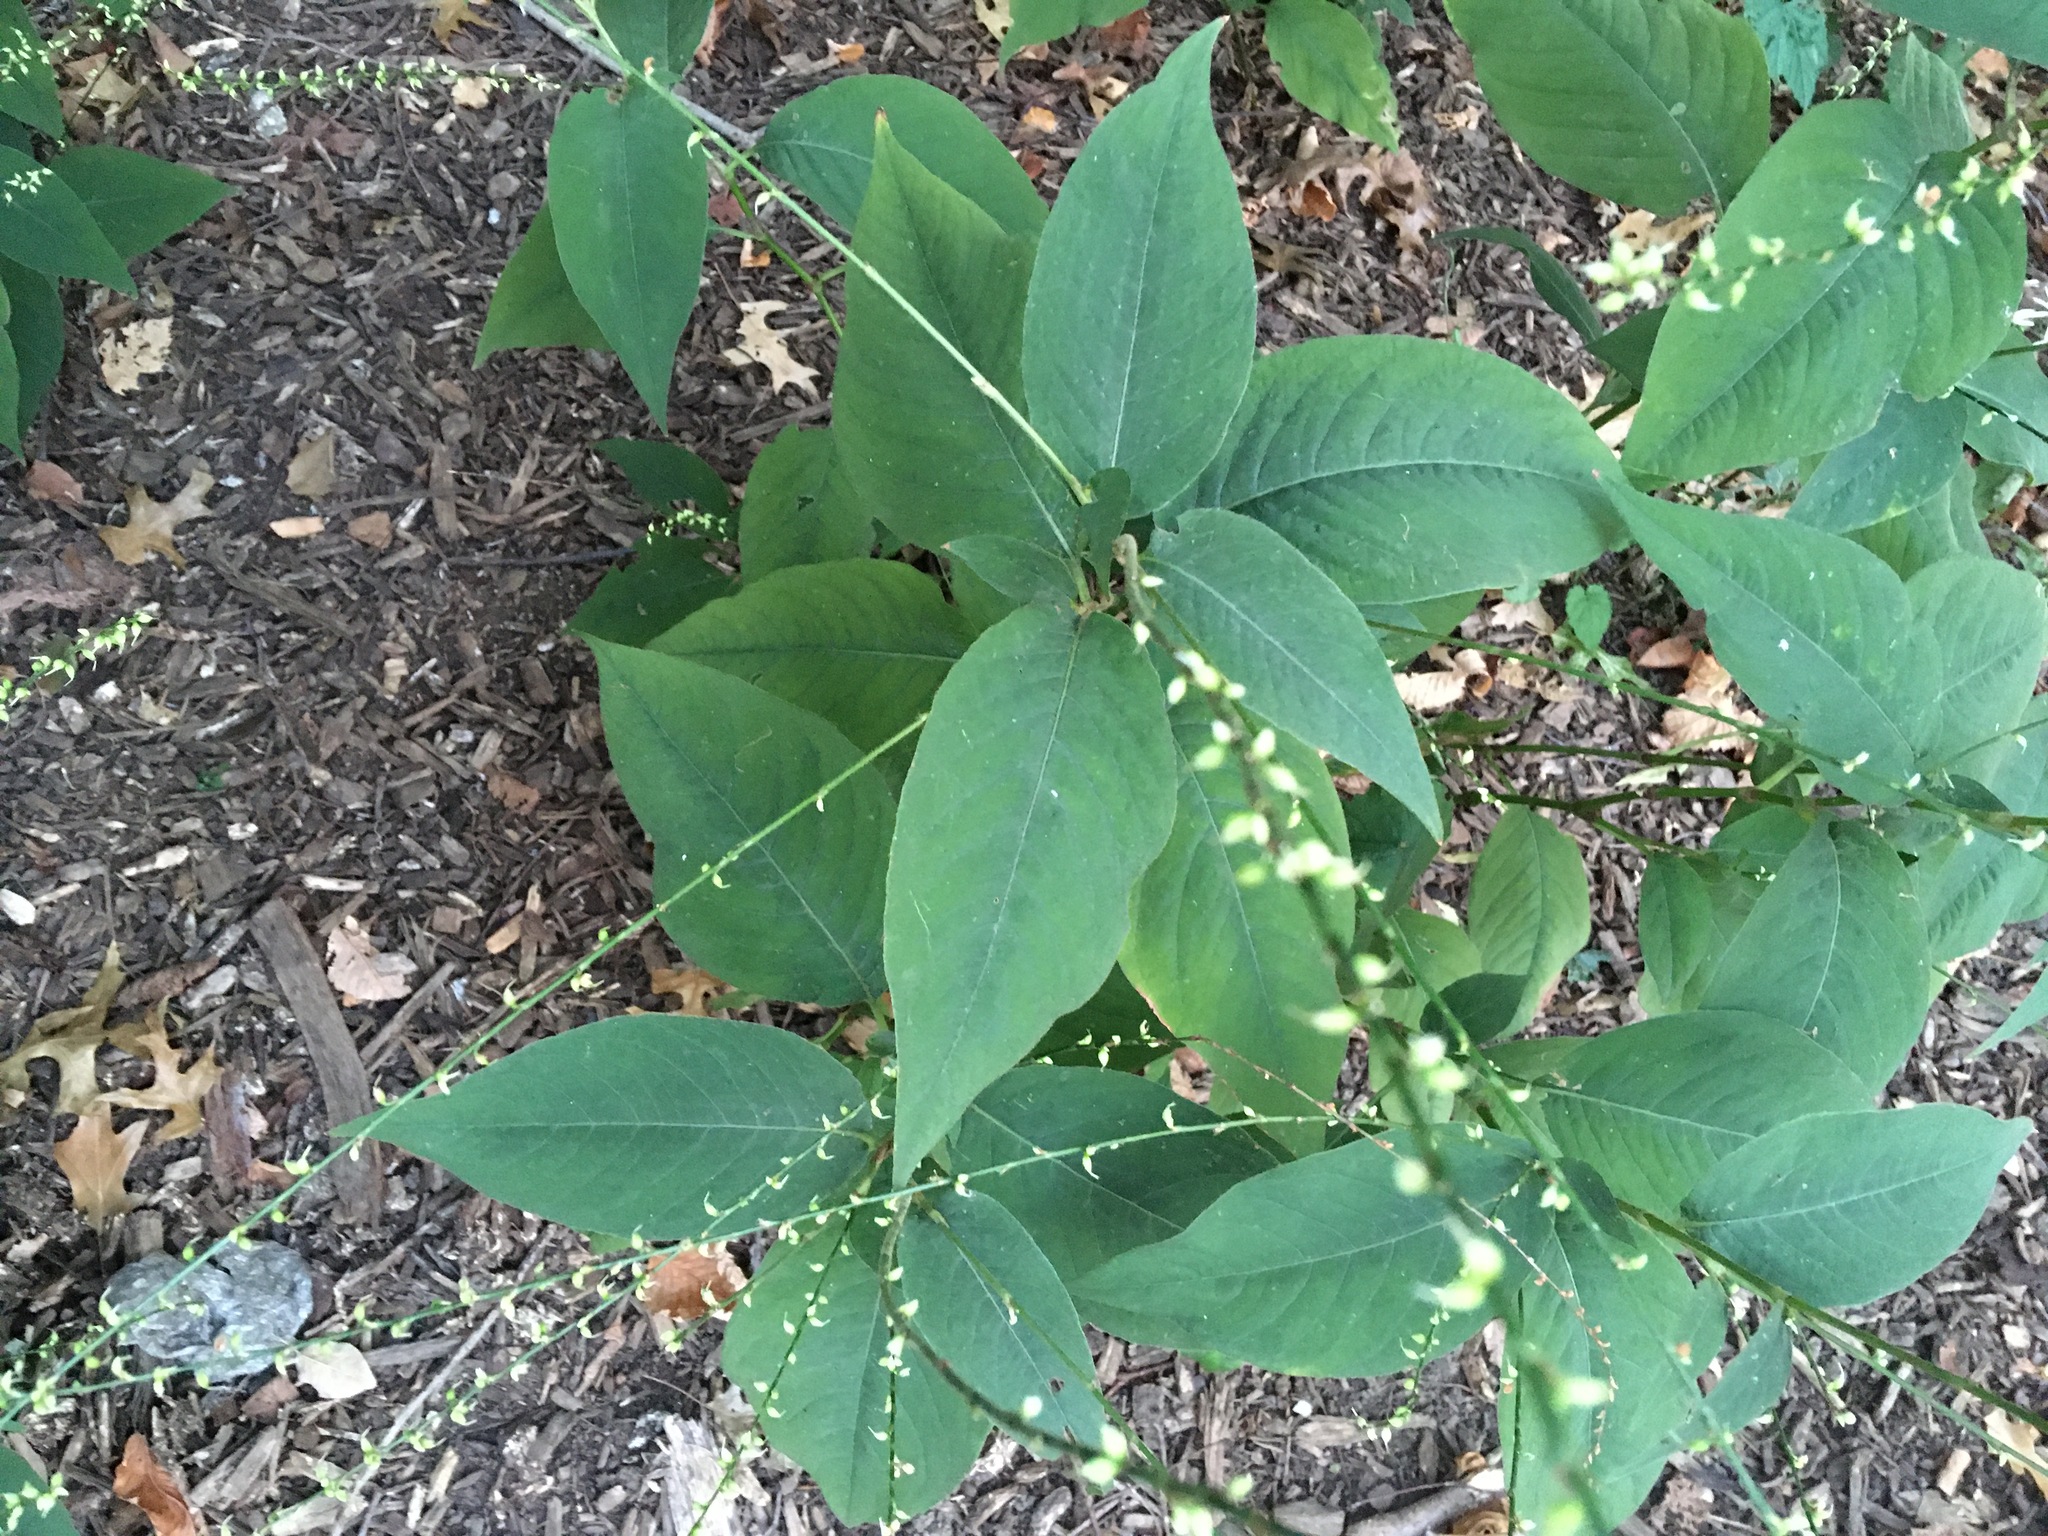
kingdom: Plantae
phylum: Tracheophyta
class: Magnoliopsida
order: Caryophyllales
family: Polygonaceae
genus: Persicaria
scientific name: Persicaria virginiana
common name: Jumpseed
